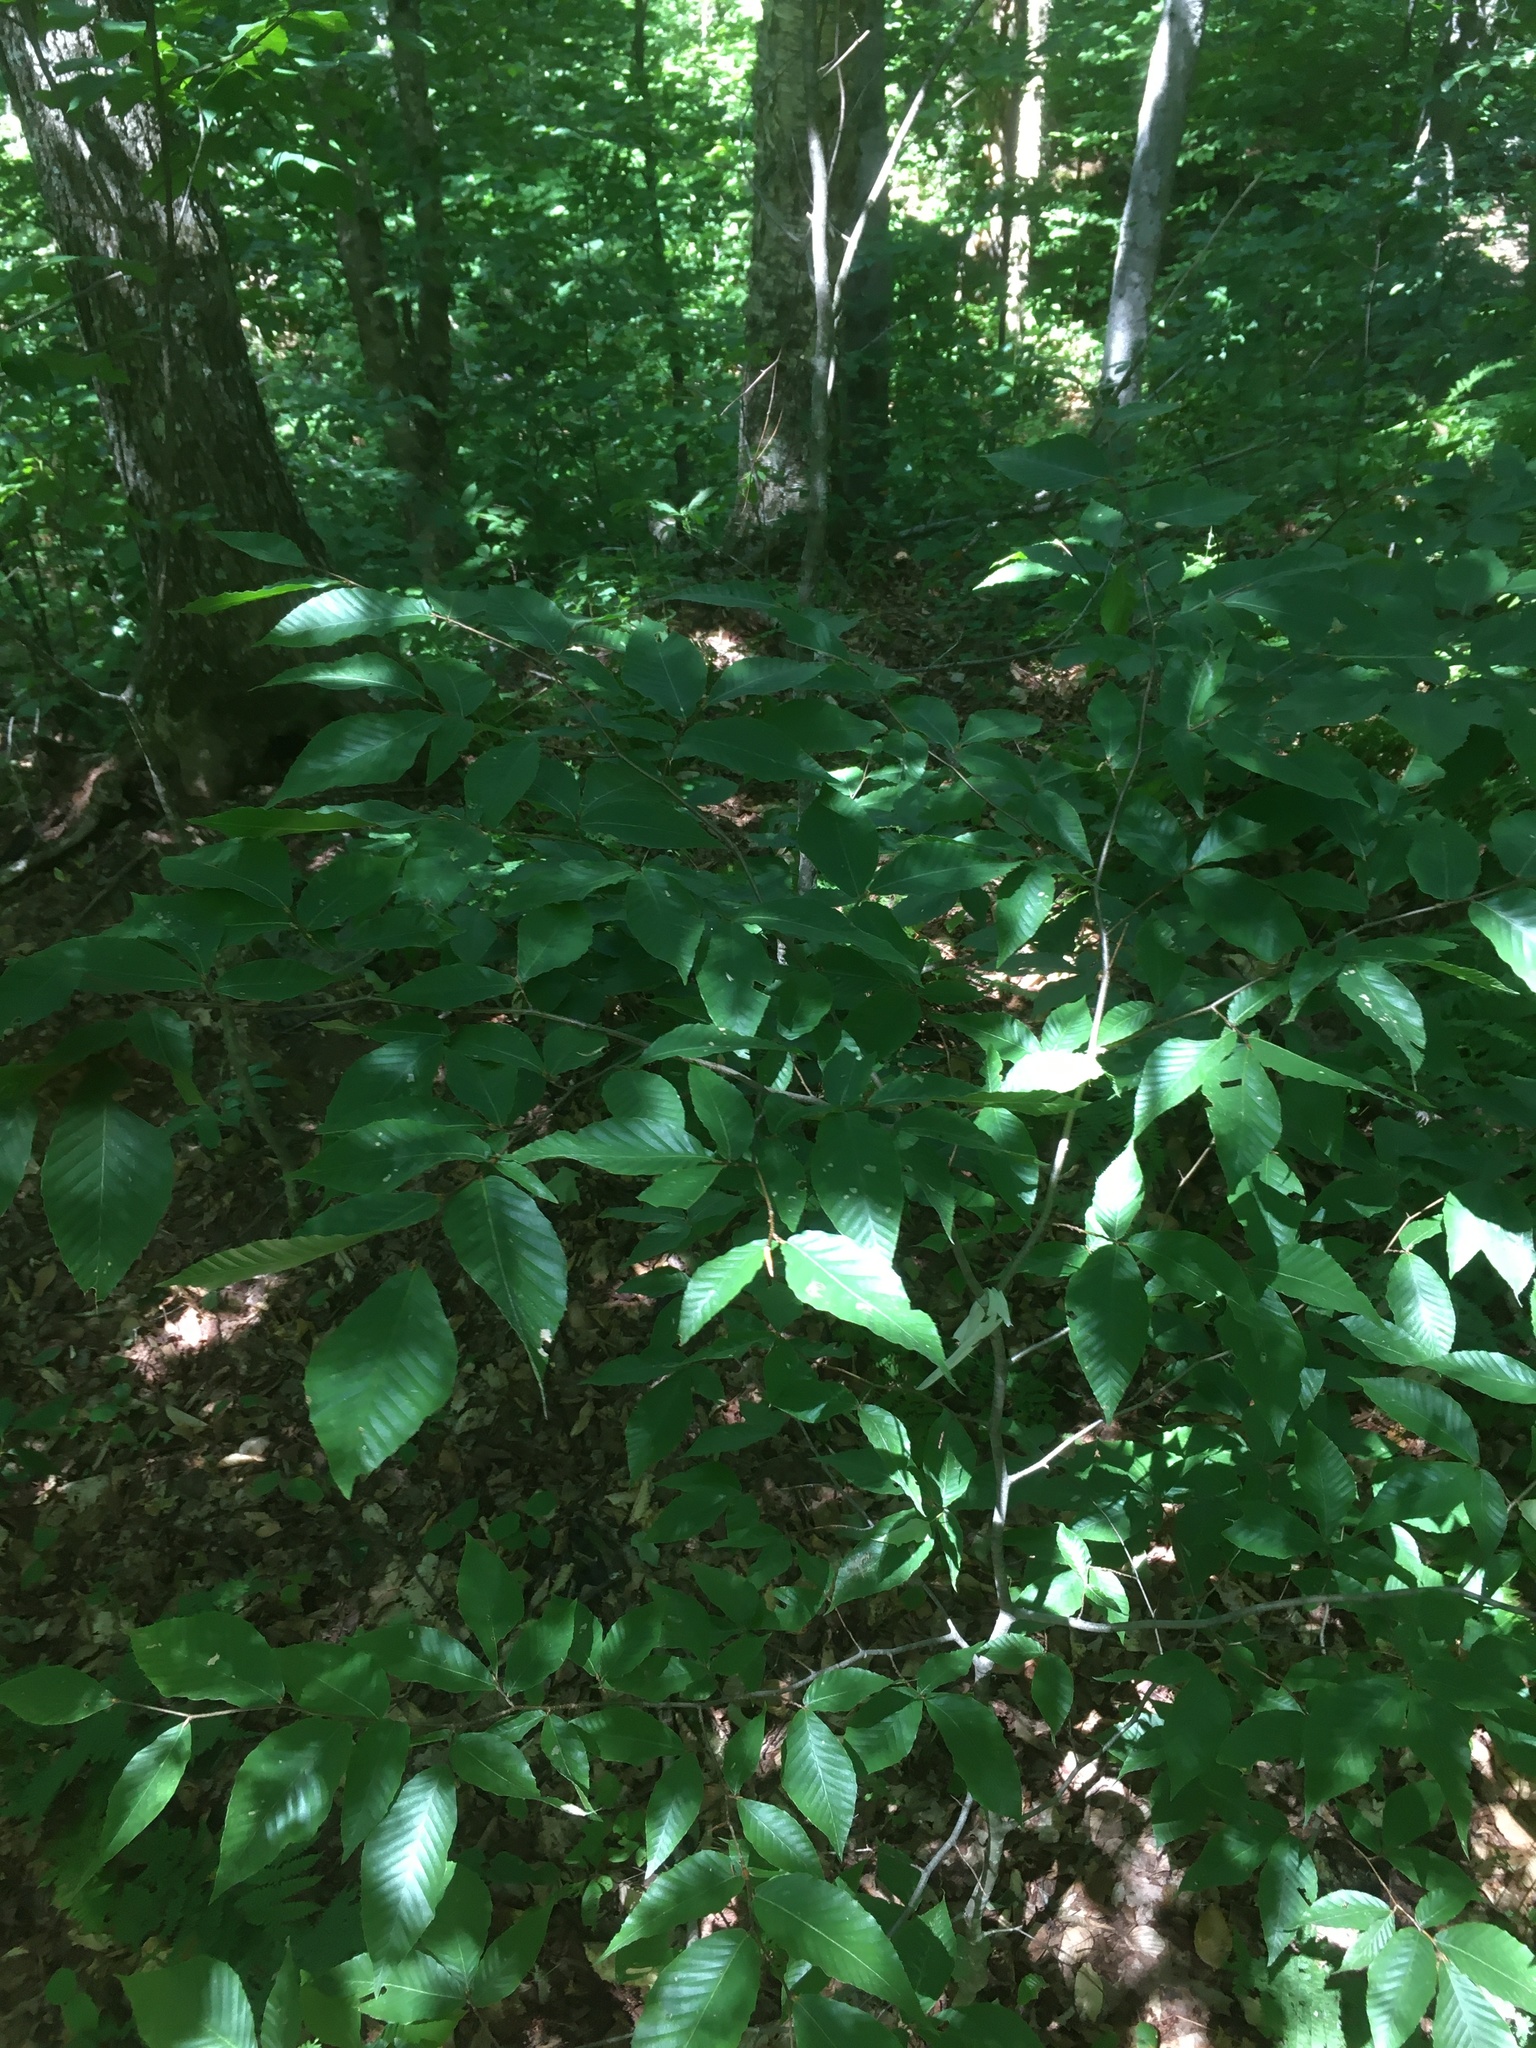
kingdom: Plantae
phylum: Tracheophyta
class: Magnoliopsida
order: Fagales
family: Fagaceae
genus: Fagus
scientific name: Fagus grandifolia
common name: American beech
